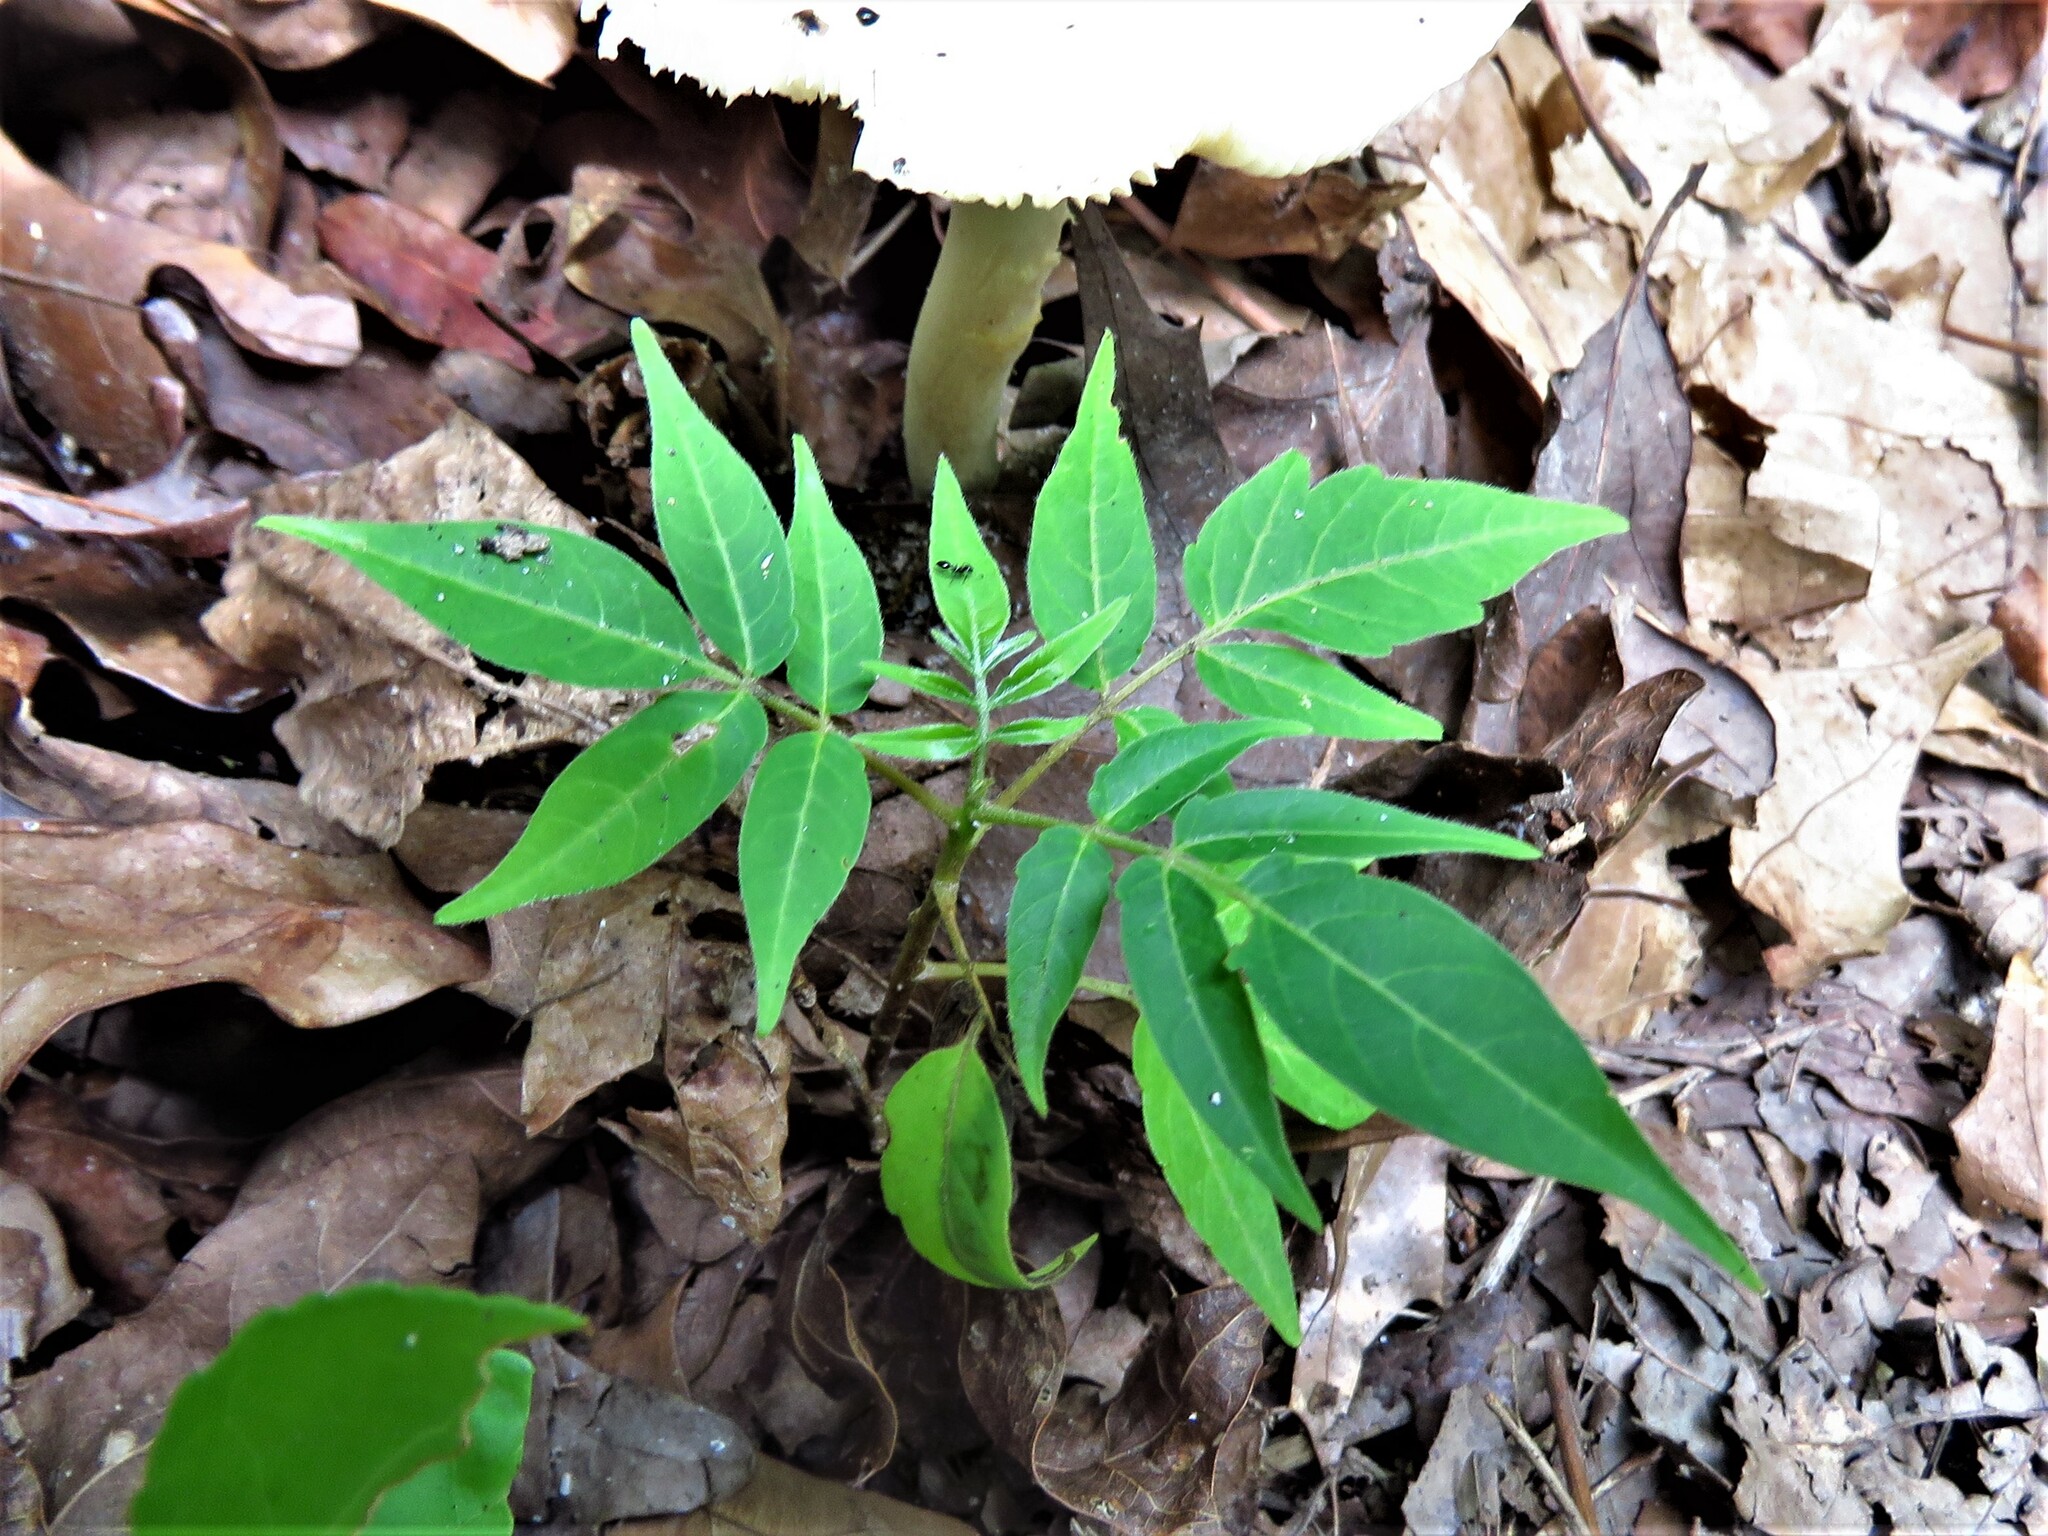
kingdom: Plantae
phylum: Tracheophyta
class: Magnoliopsida
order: Sapindales
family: Simaroubaceae
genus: Ailanthus
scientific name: Ailanthus altissima
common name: Tree-of-heaven
